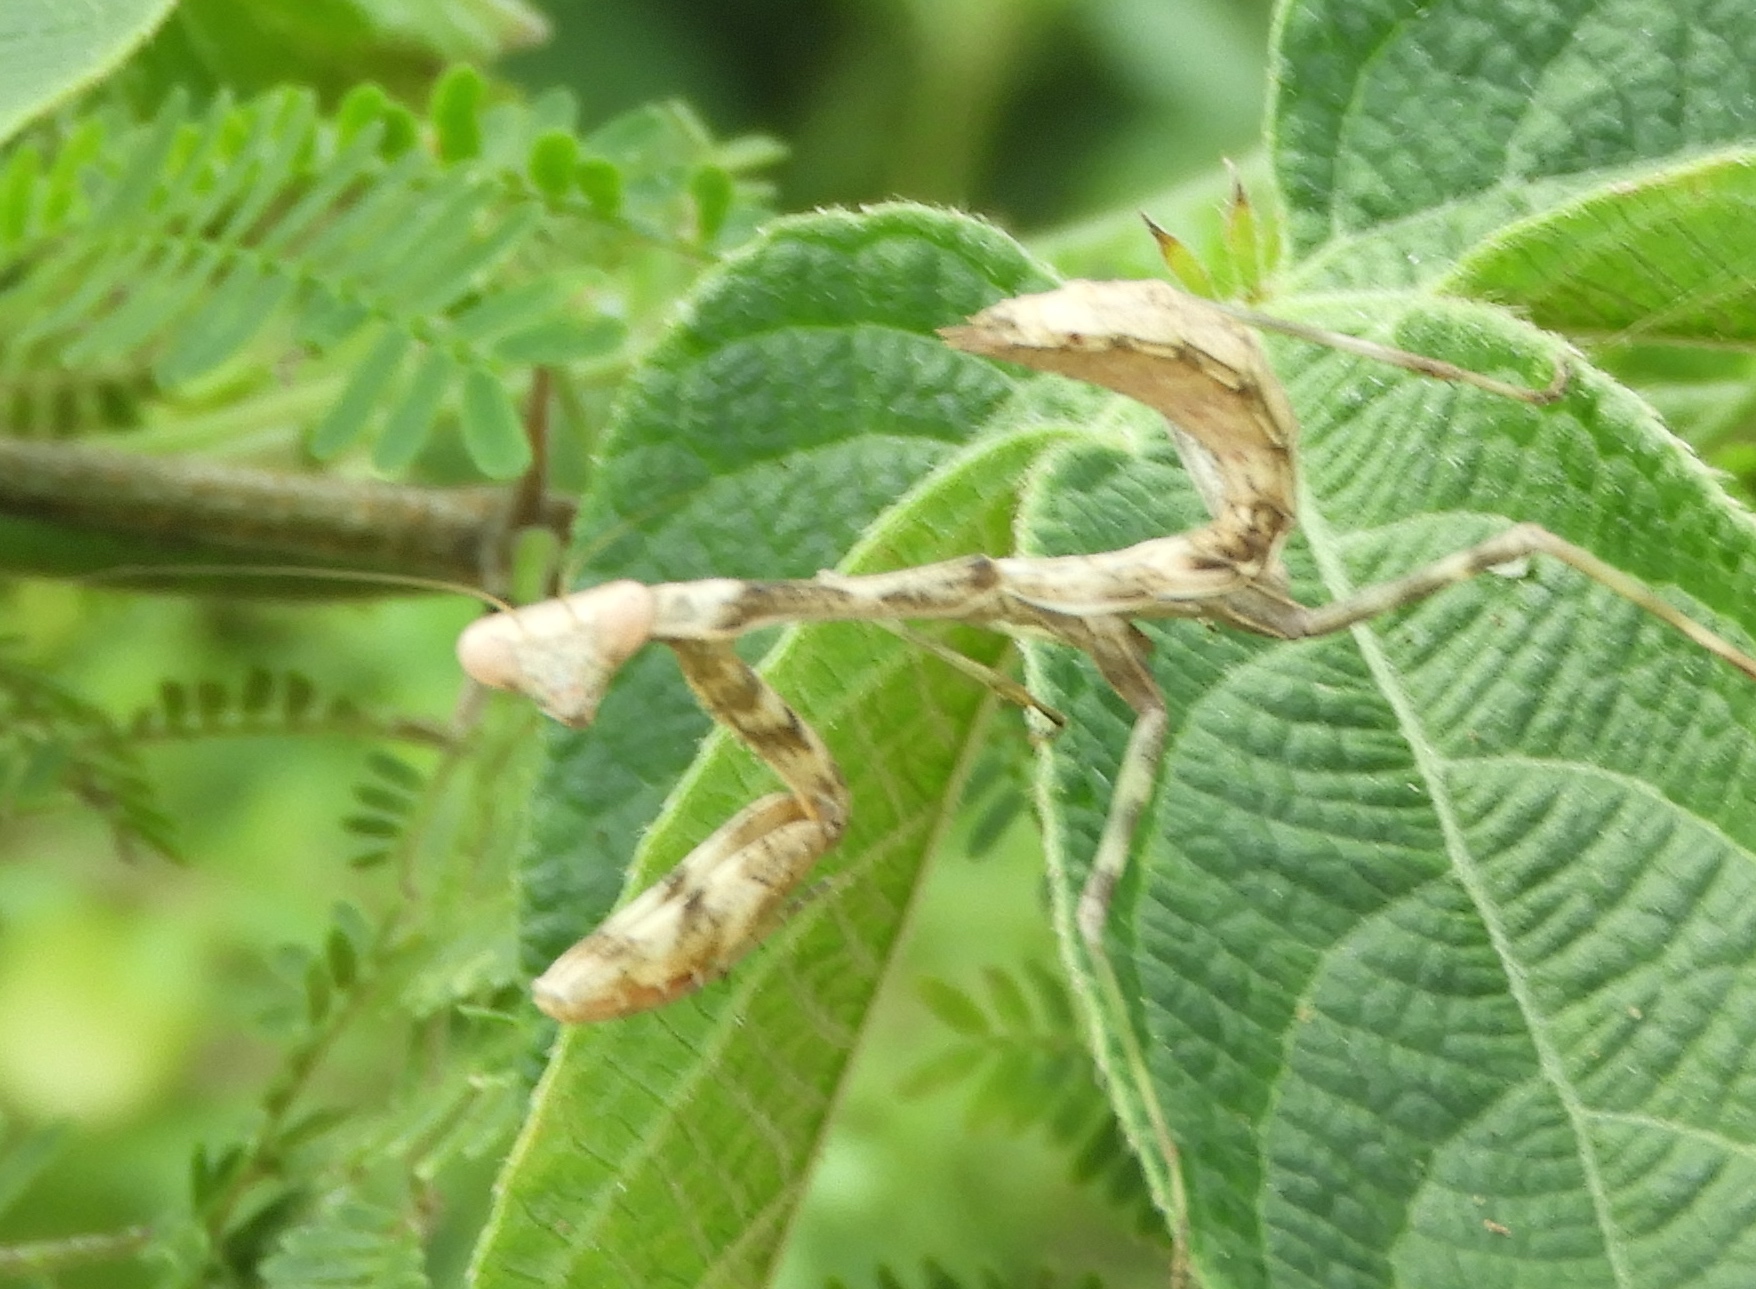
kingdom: Animalia
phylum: Arthropoda
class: Insecta
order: Mantodea
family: Mantidae
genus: Stagmomantis
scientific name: Stagmomantis carolina
